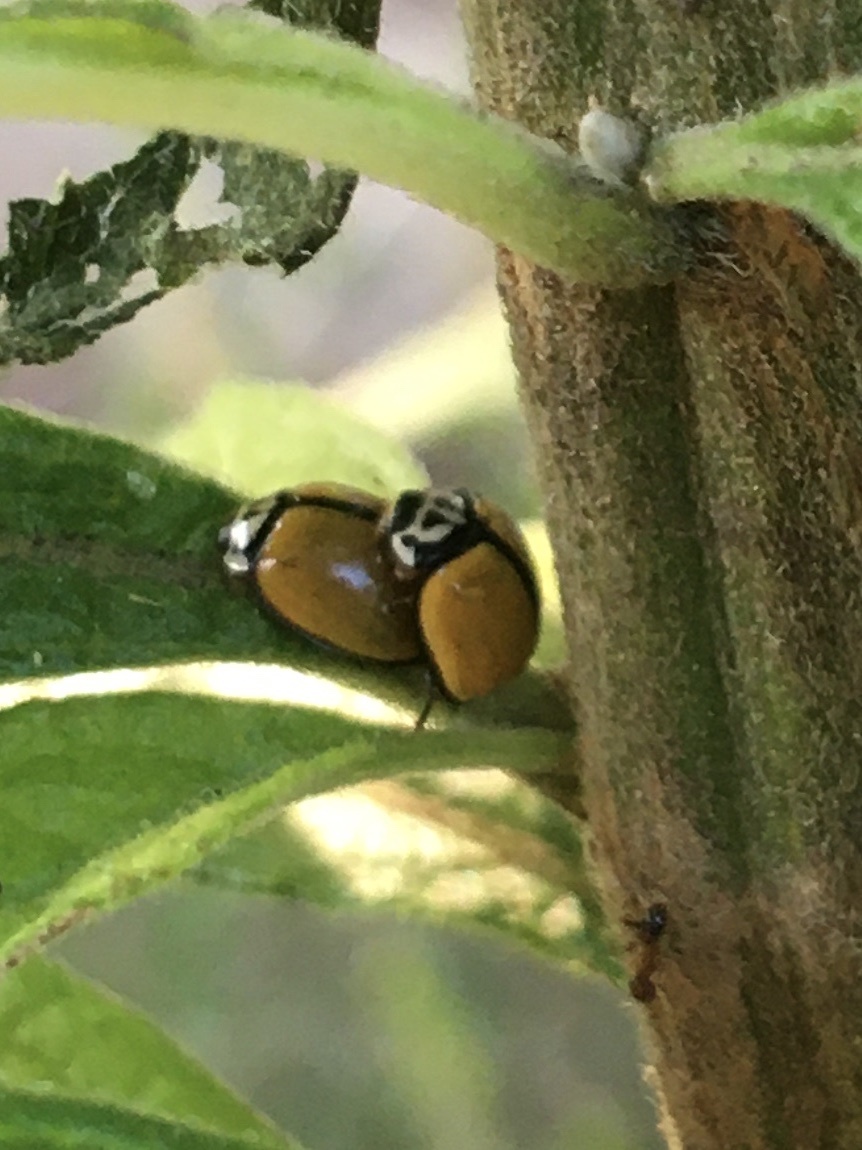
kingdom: Animalia
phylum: Arthropoda
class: Insecta
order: Coleoptera
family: Coccinellidae
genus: Oenopia
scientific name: Oenopia
